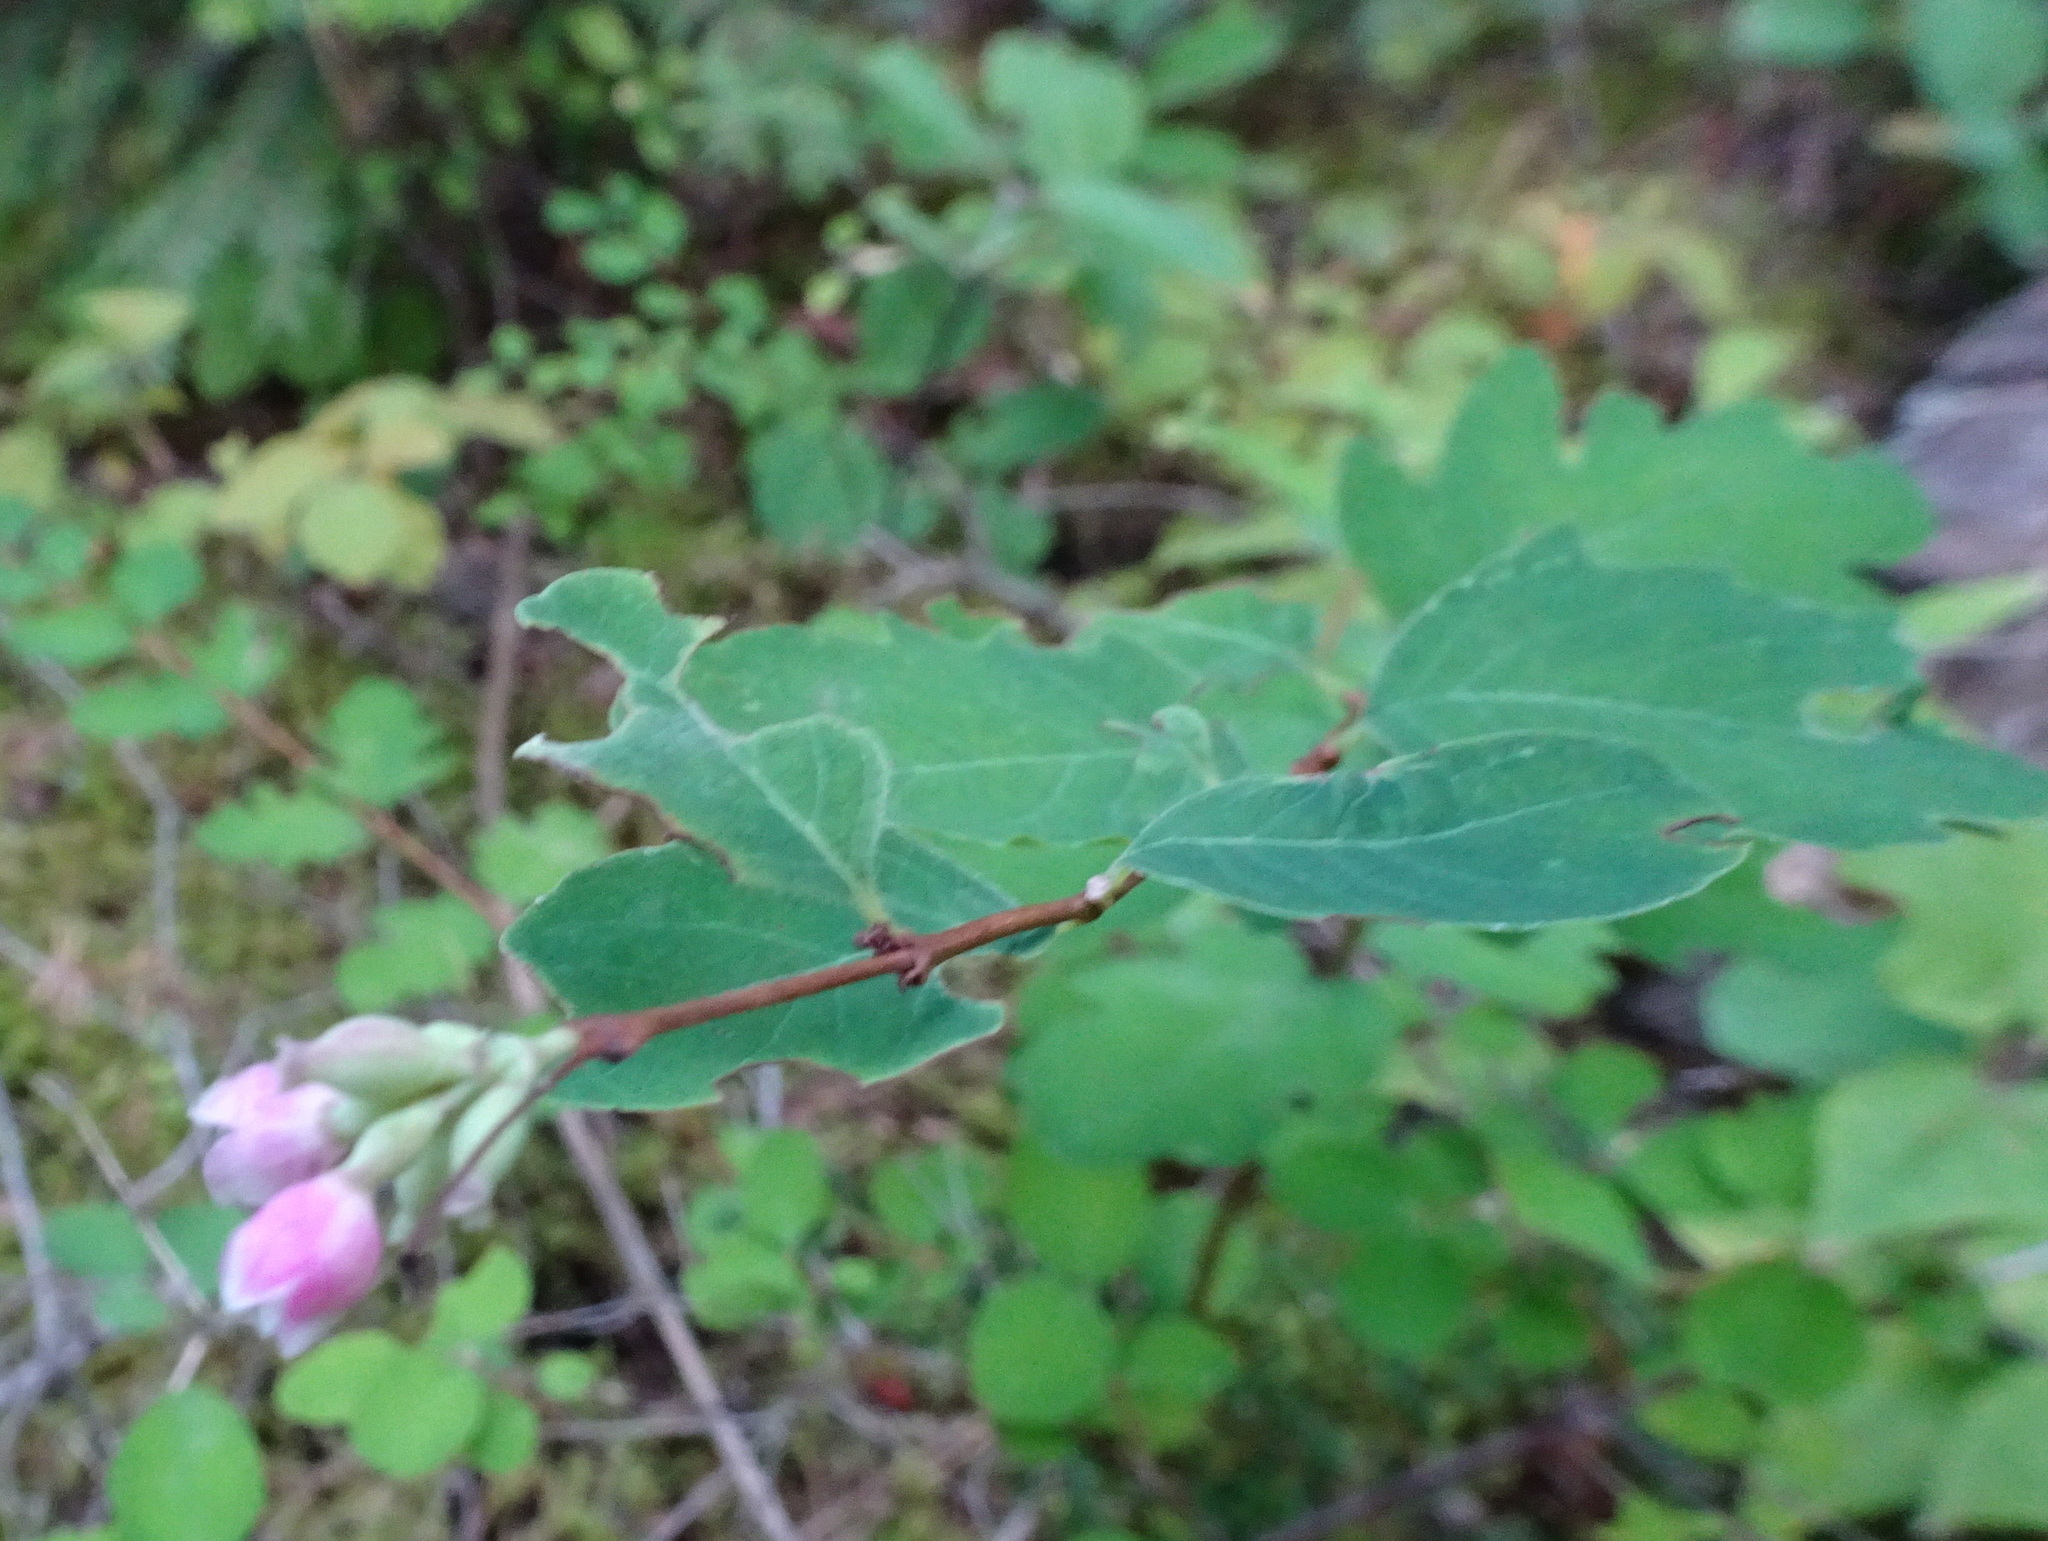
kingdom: Plantae
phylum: Tracheophyta
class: Magnoliopsida
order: Dipsacales
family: Caprifoliaceae
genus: Symphoricarpos
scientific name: Symphoricarpos albus
